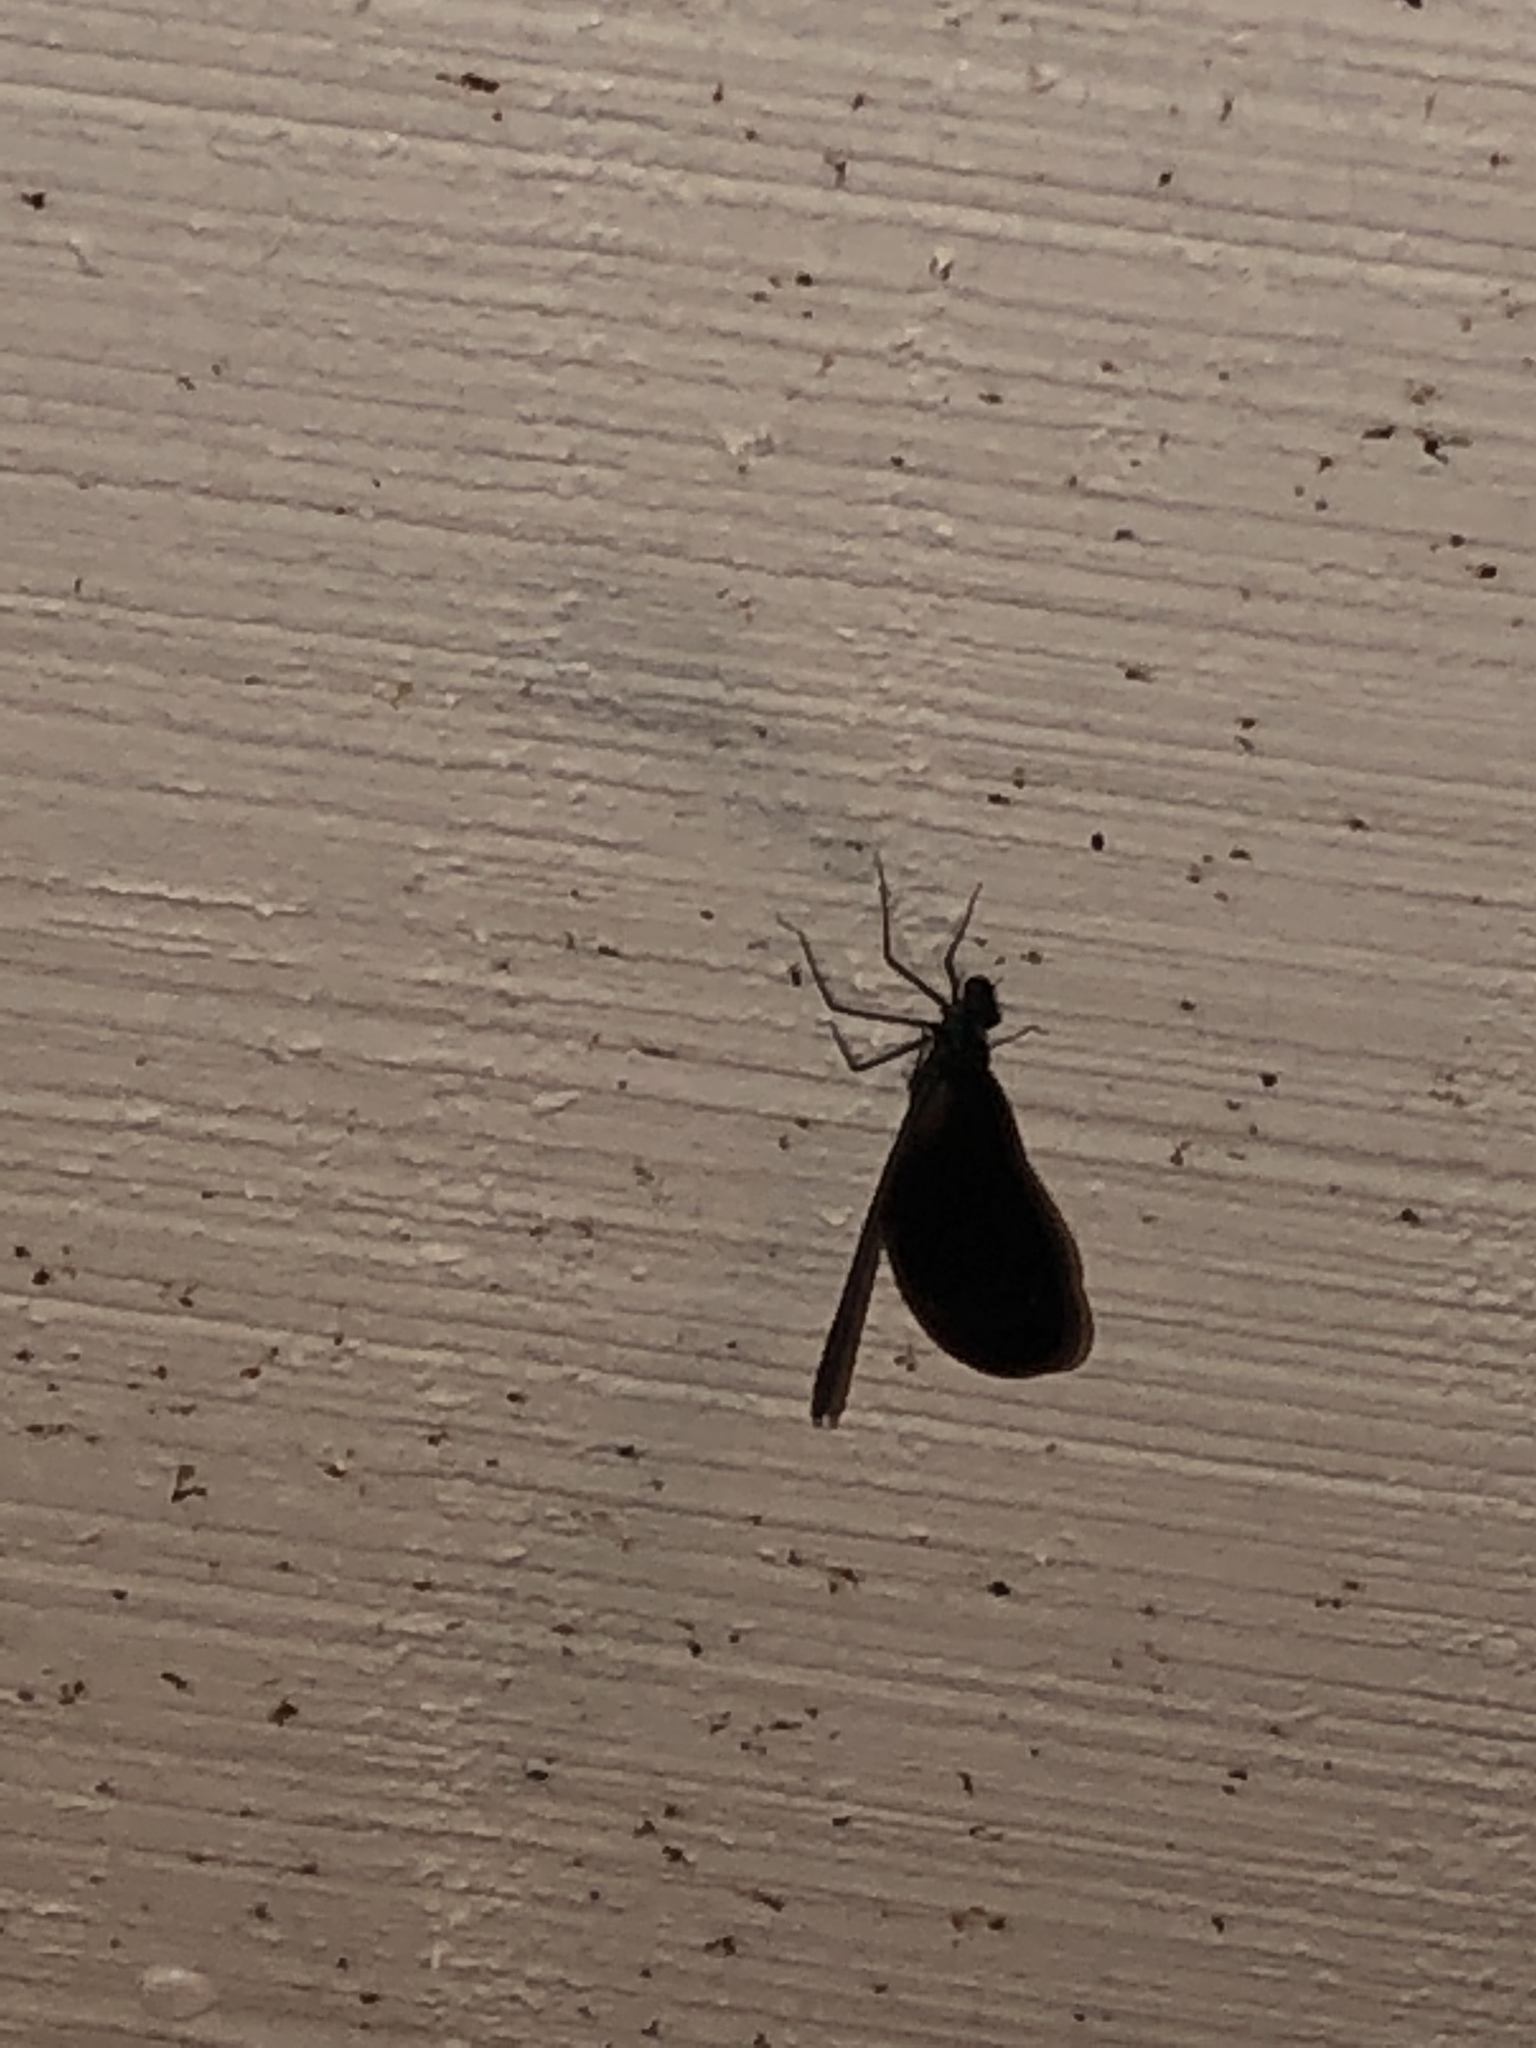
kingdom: Animalia
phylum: Arthropoda
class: Insecta
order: Odonata
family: Calopterygidae
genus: Calopteryx
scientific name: Calopteryx maculata
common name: Ebony jewelwing
